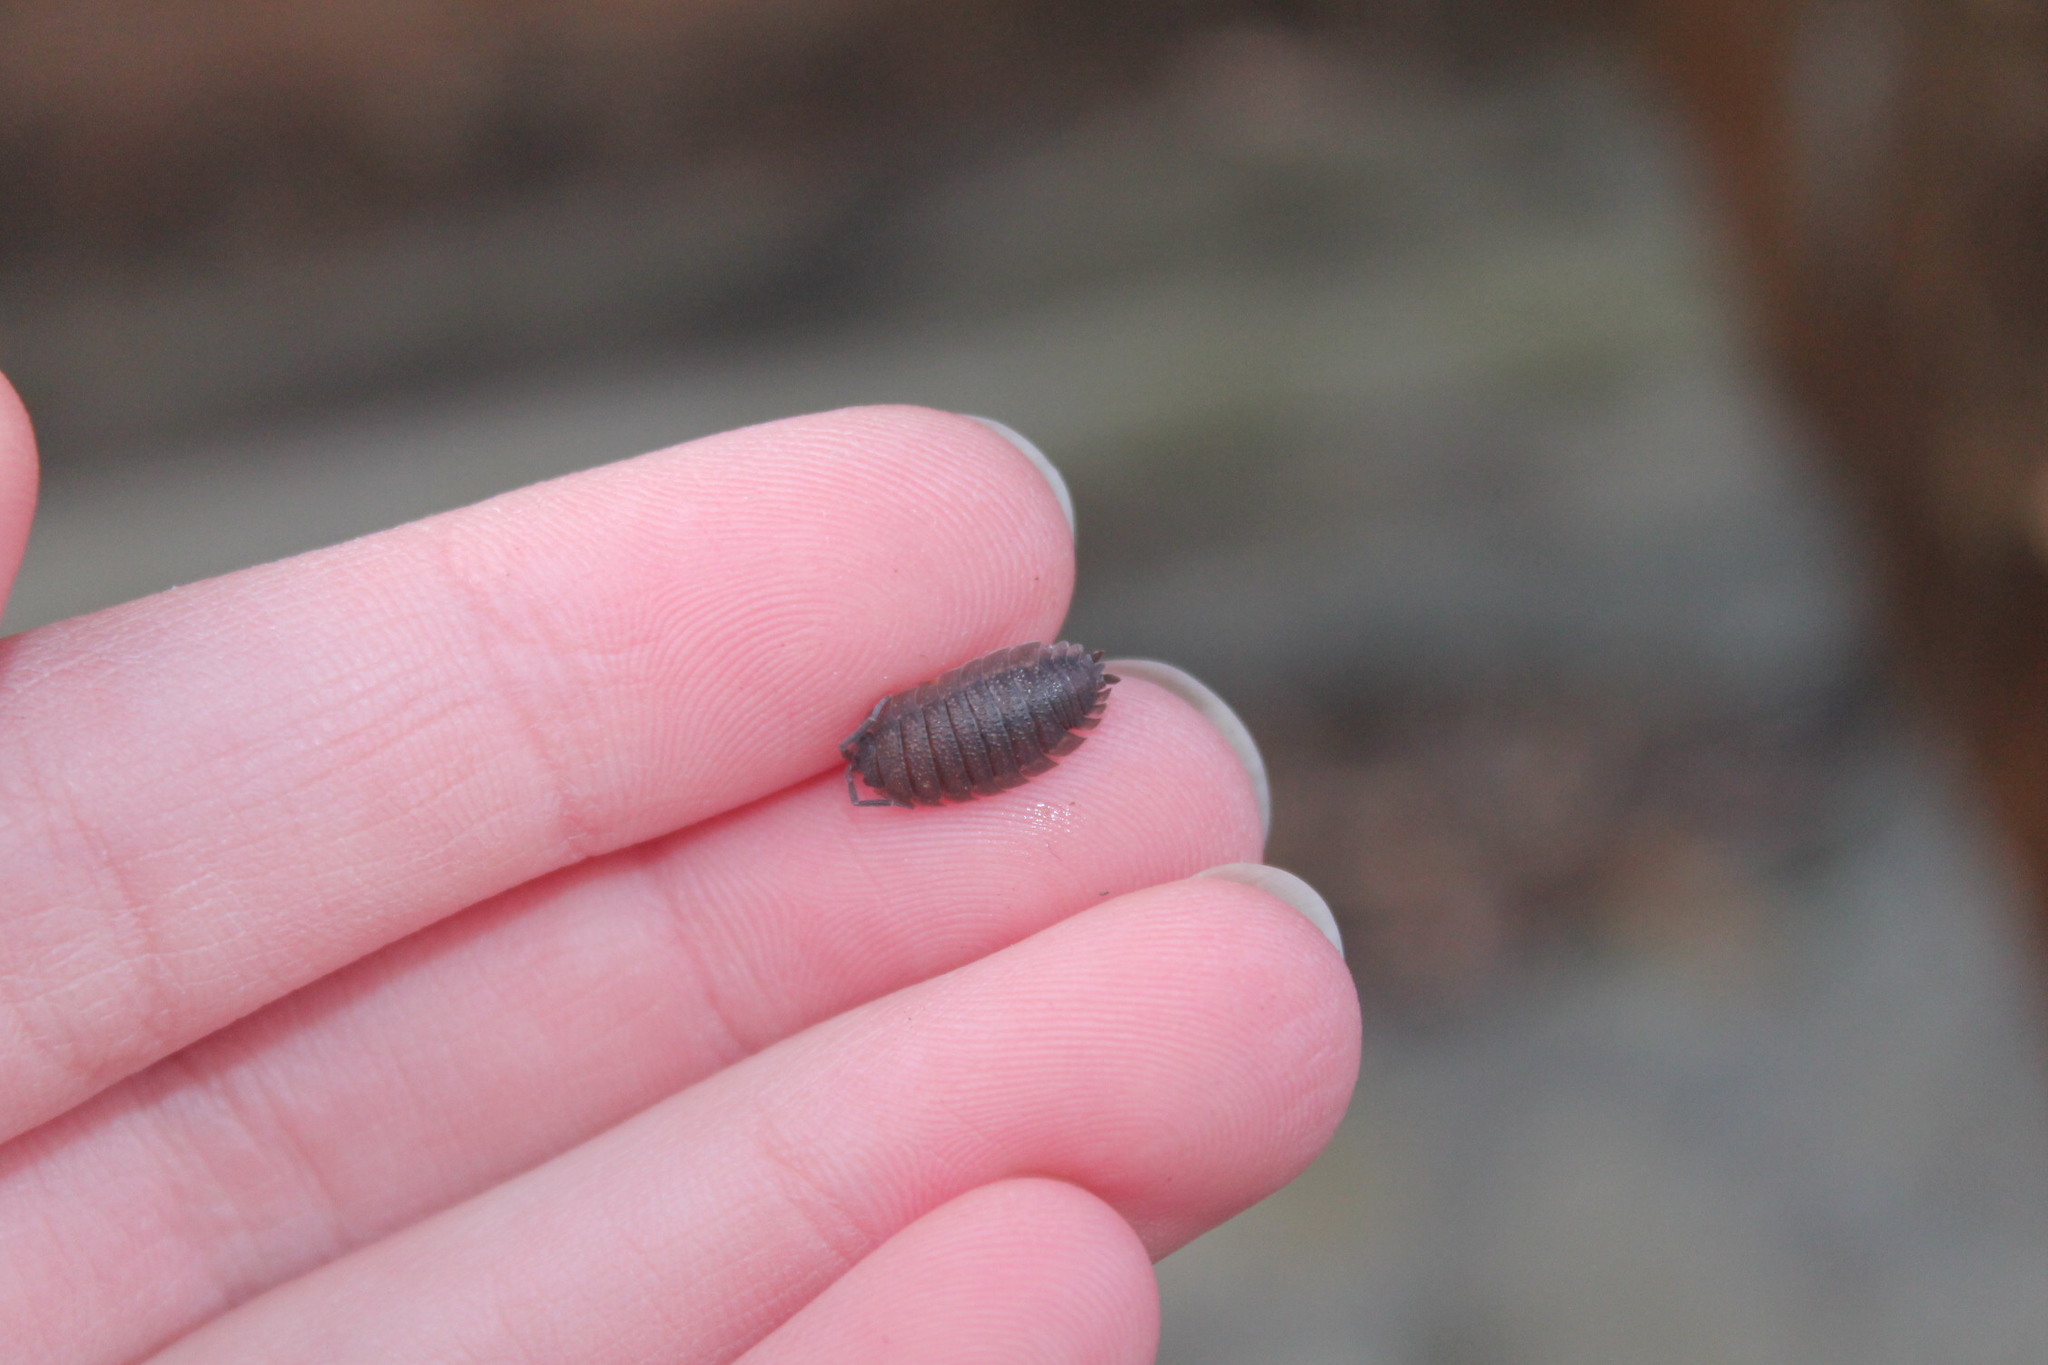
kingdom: Animalia
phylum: Arthropoda
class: Malacostraca
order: Isopoda
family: Porcellionidae
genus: Porcellio
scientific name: Porcellio scaber
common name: Common rough woodlouse
